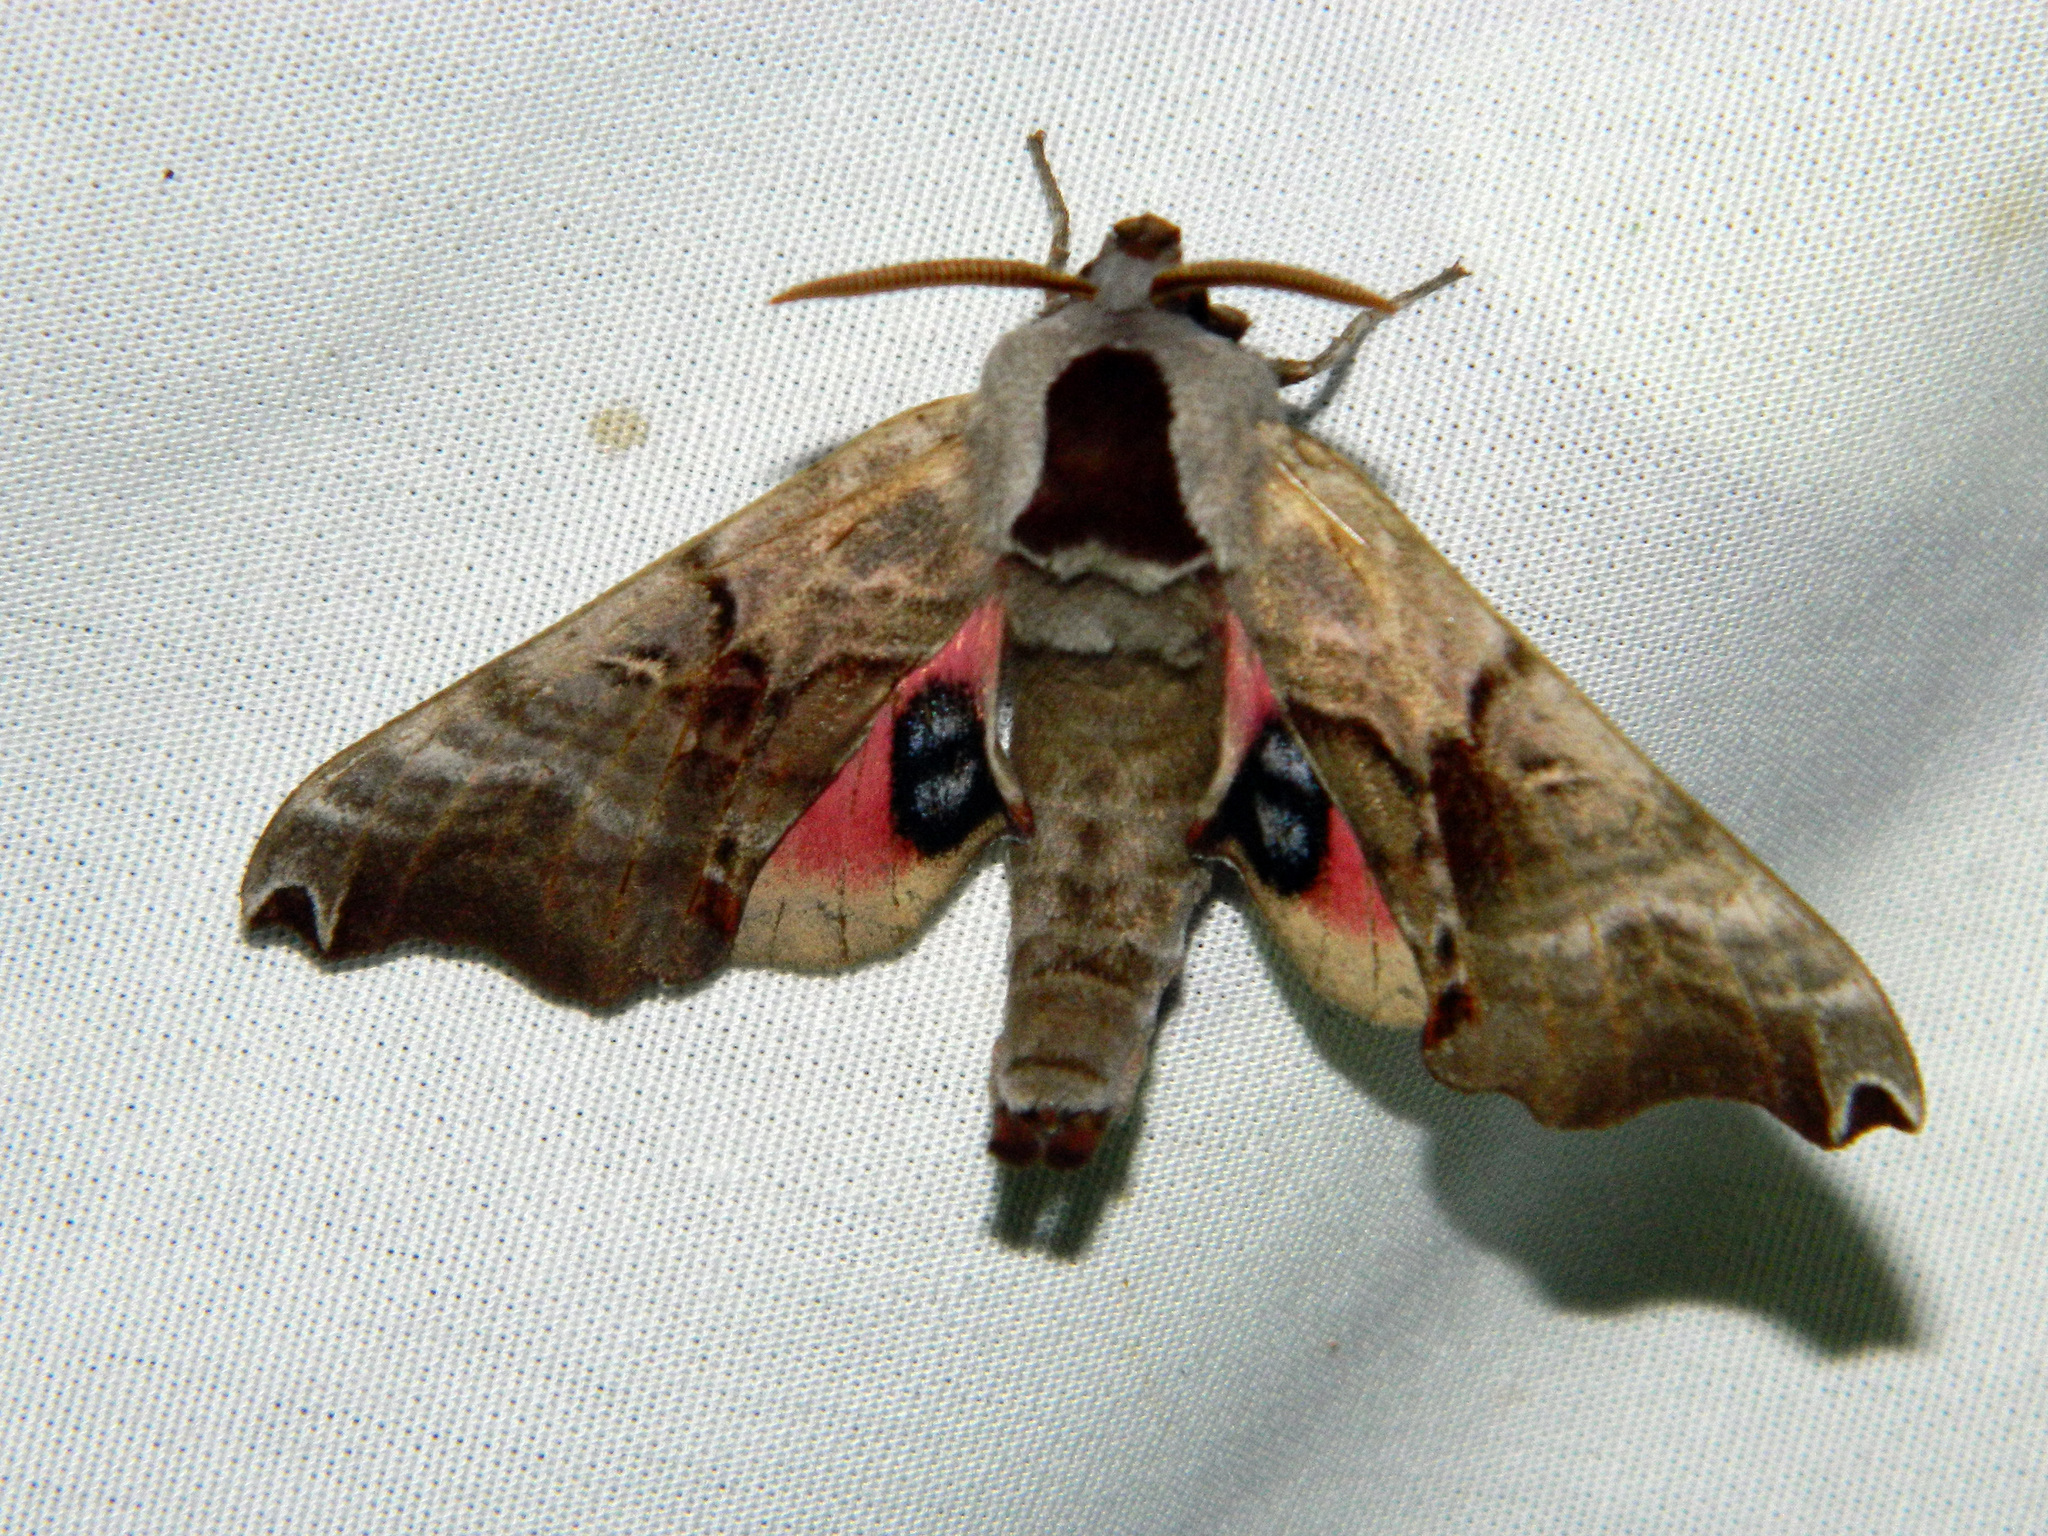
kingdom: Animalia
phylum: Arthropoda
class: Insecta
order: Lepidoptera
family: Sphingidae
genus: Smerinthus
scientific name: Smerinthus jamaicensis
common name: Twin spotted sphinx
